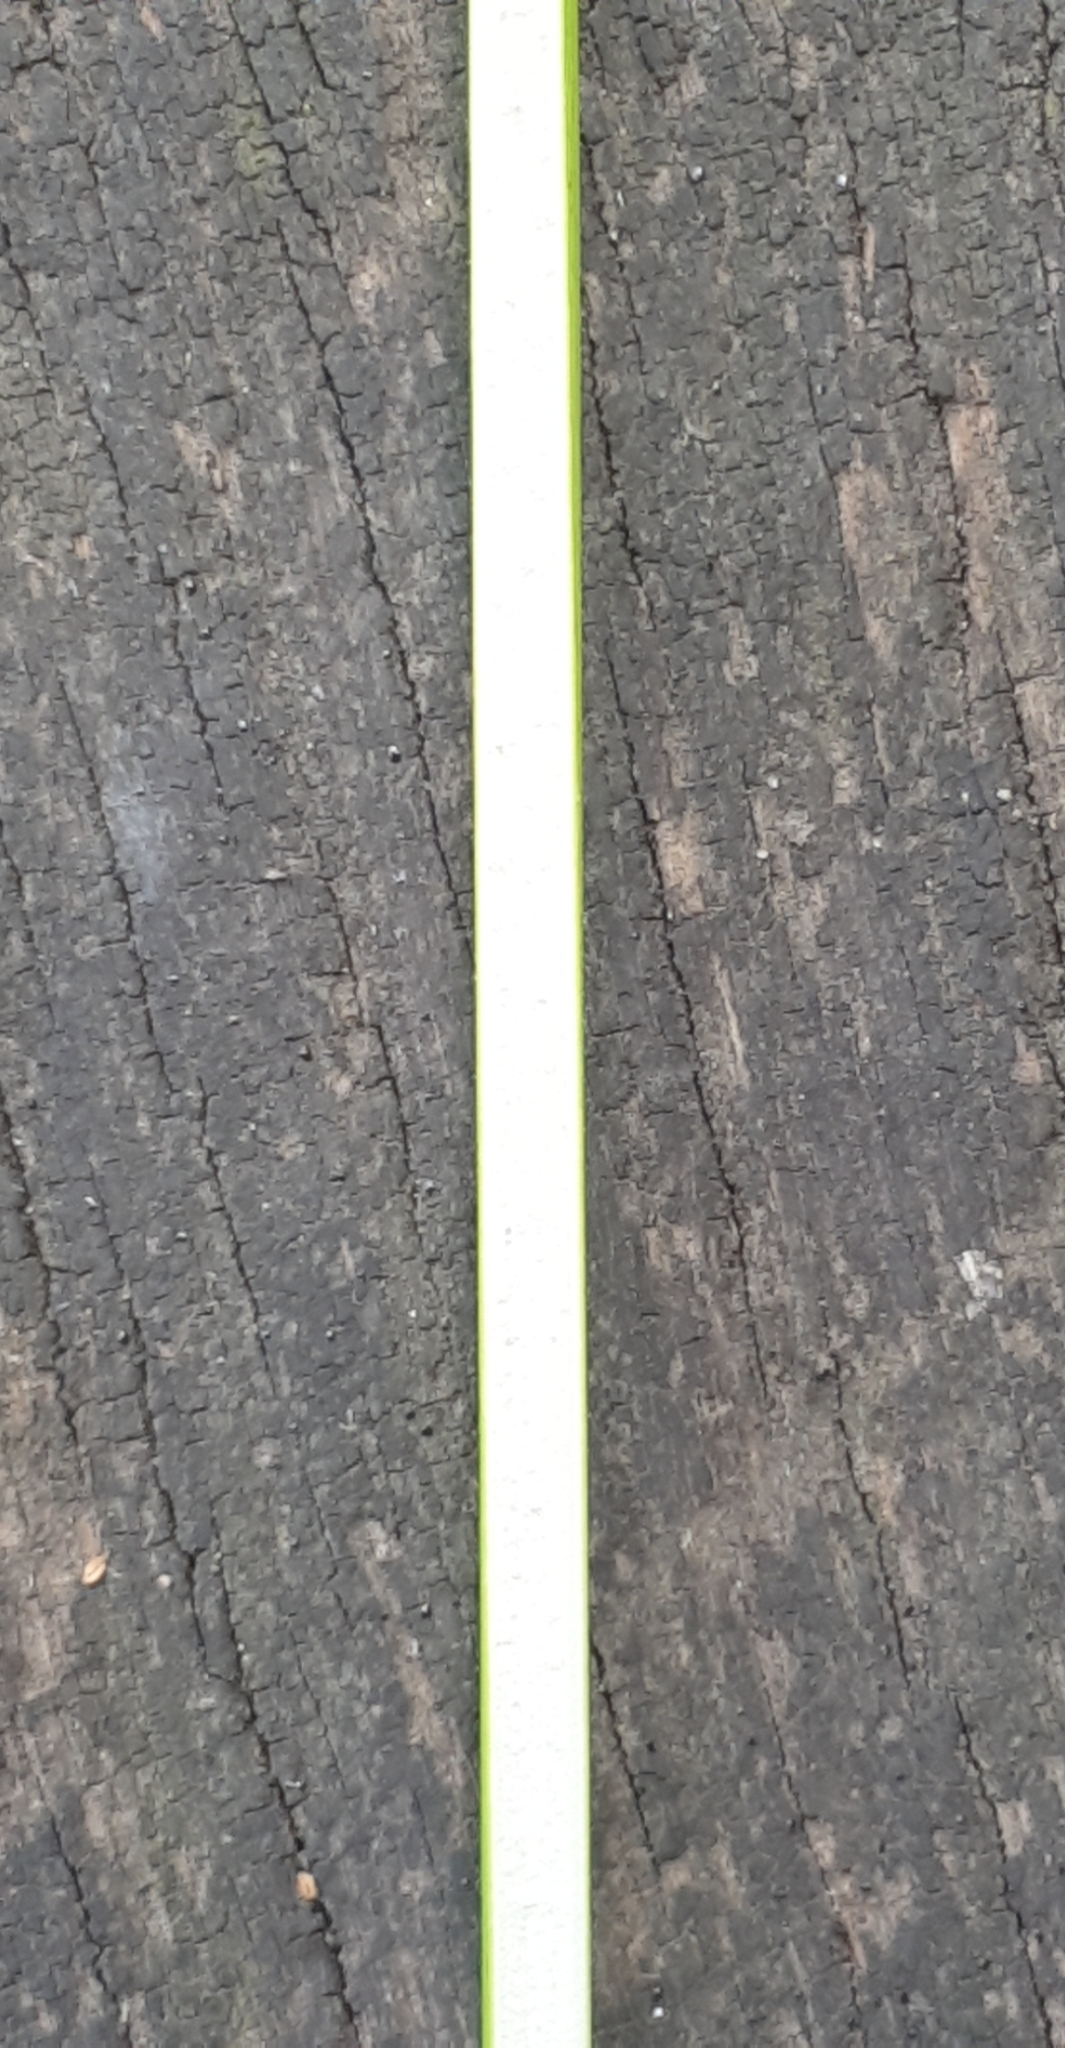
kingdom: Plantae
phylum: Tracheophyta
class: Liliopsida
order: Poales
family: Juncaceae
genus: Juncus
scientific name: Juncus effusus
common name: Soft rush
